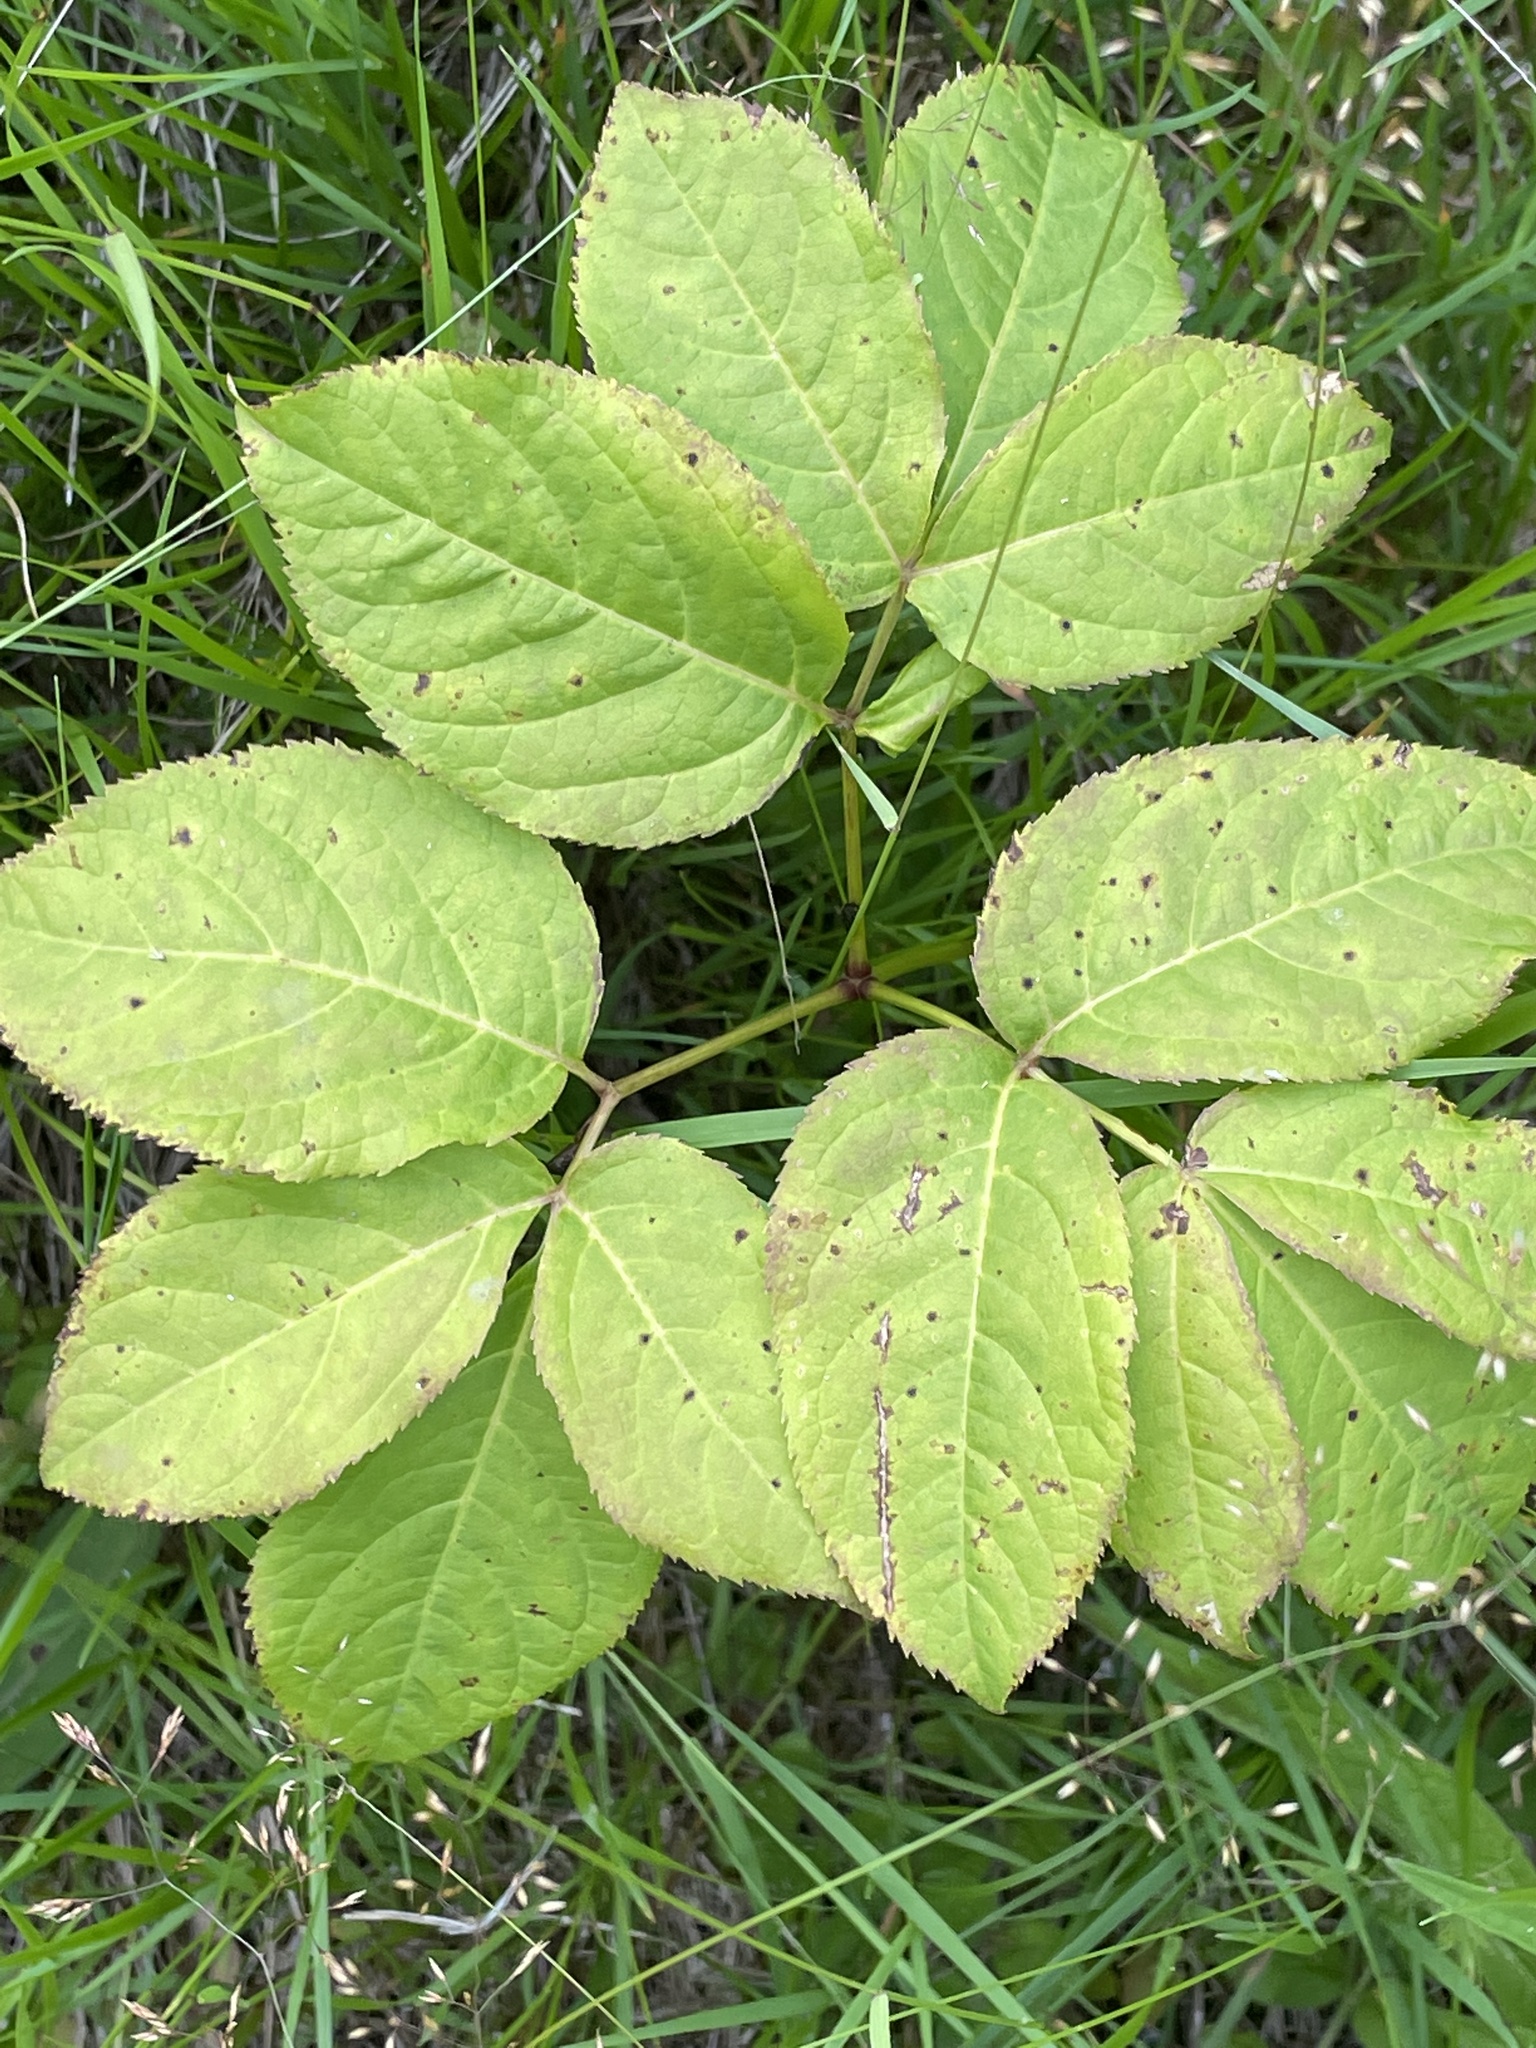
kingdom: Plantae
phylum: Tracheophyta
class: Magnoliopsida
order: Apiales
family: Araliaceae
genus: Aralia
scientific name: Aralia nudicaulis
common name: Wild sarsaparilla
